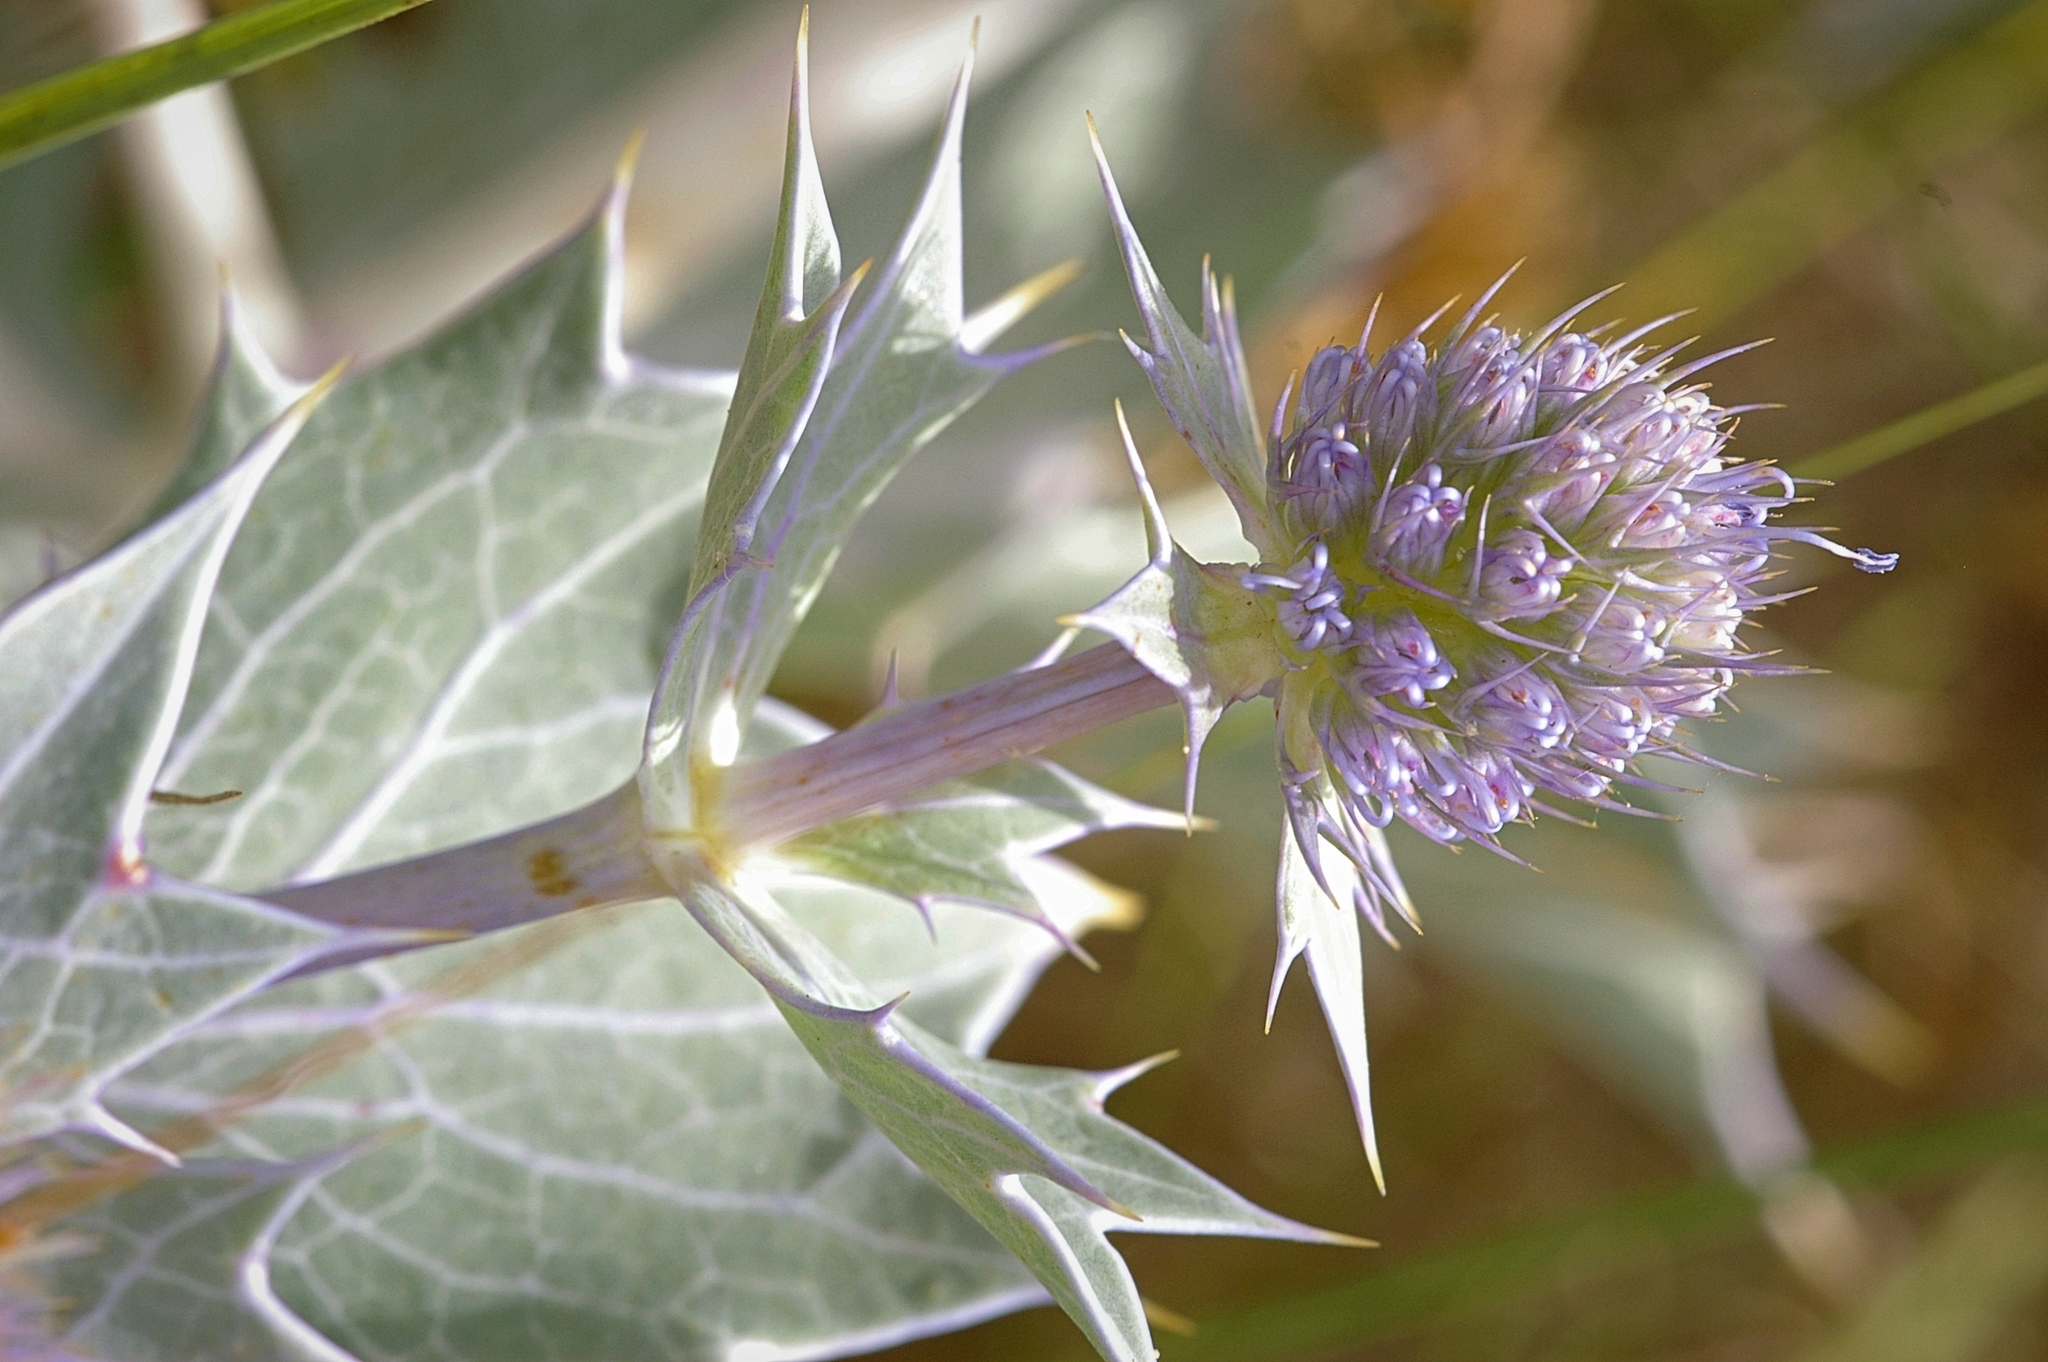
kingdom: Plantae
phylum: Tracheophyta
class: Magnoliopsida
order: Apiales
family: Apiaceae
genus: Eryngium
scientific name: Eryngium maritimum
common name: Sea-holly
